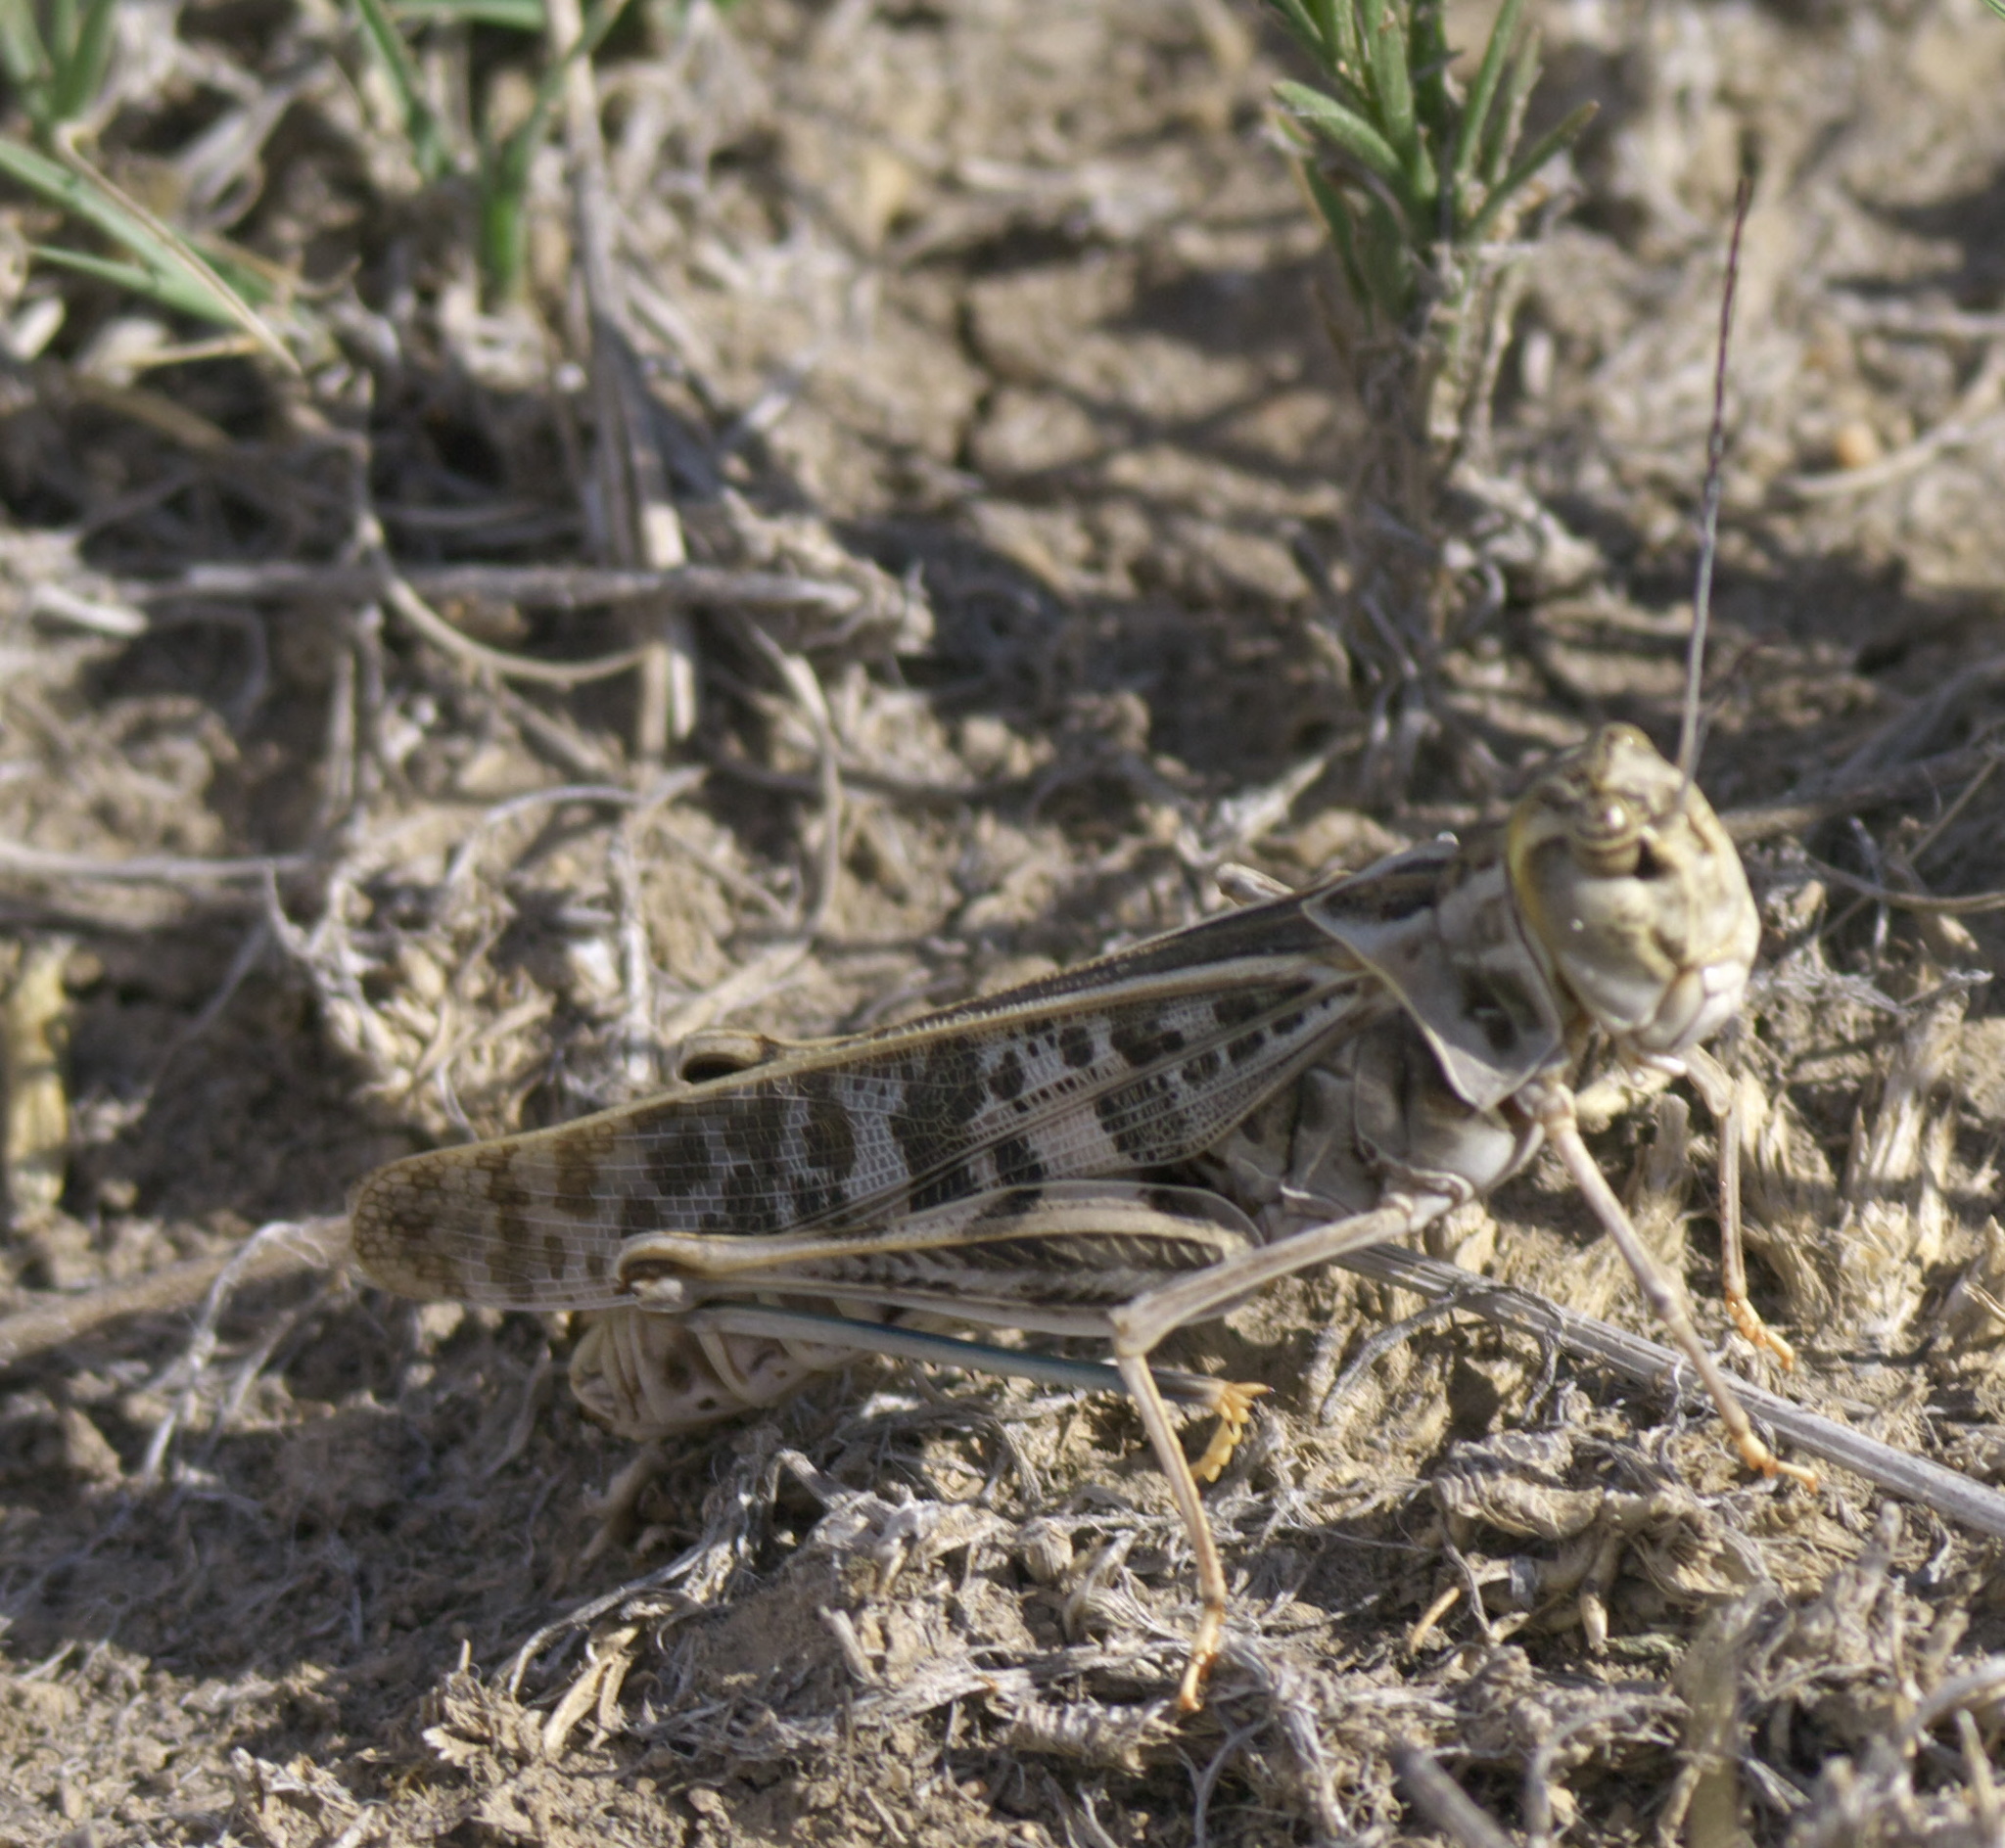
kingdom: Animalia
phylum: Arthropoda
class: Insecta
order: Orthoptera
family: Acrididae
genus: Metator
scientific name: Metator pardalinus
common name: Blue-legged grasshopper
